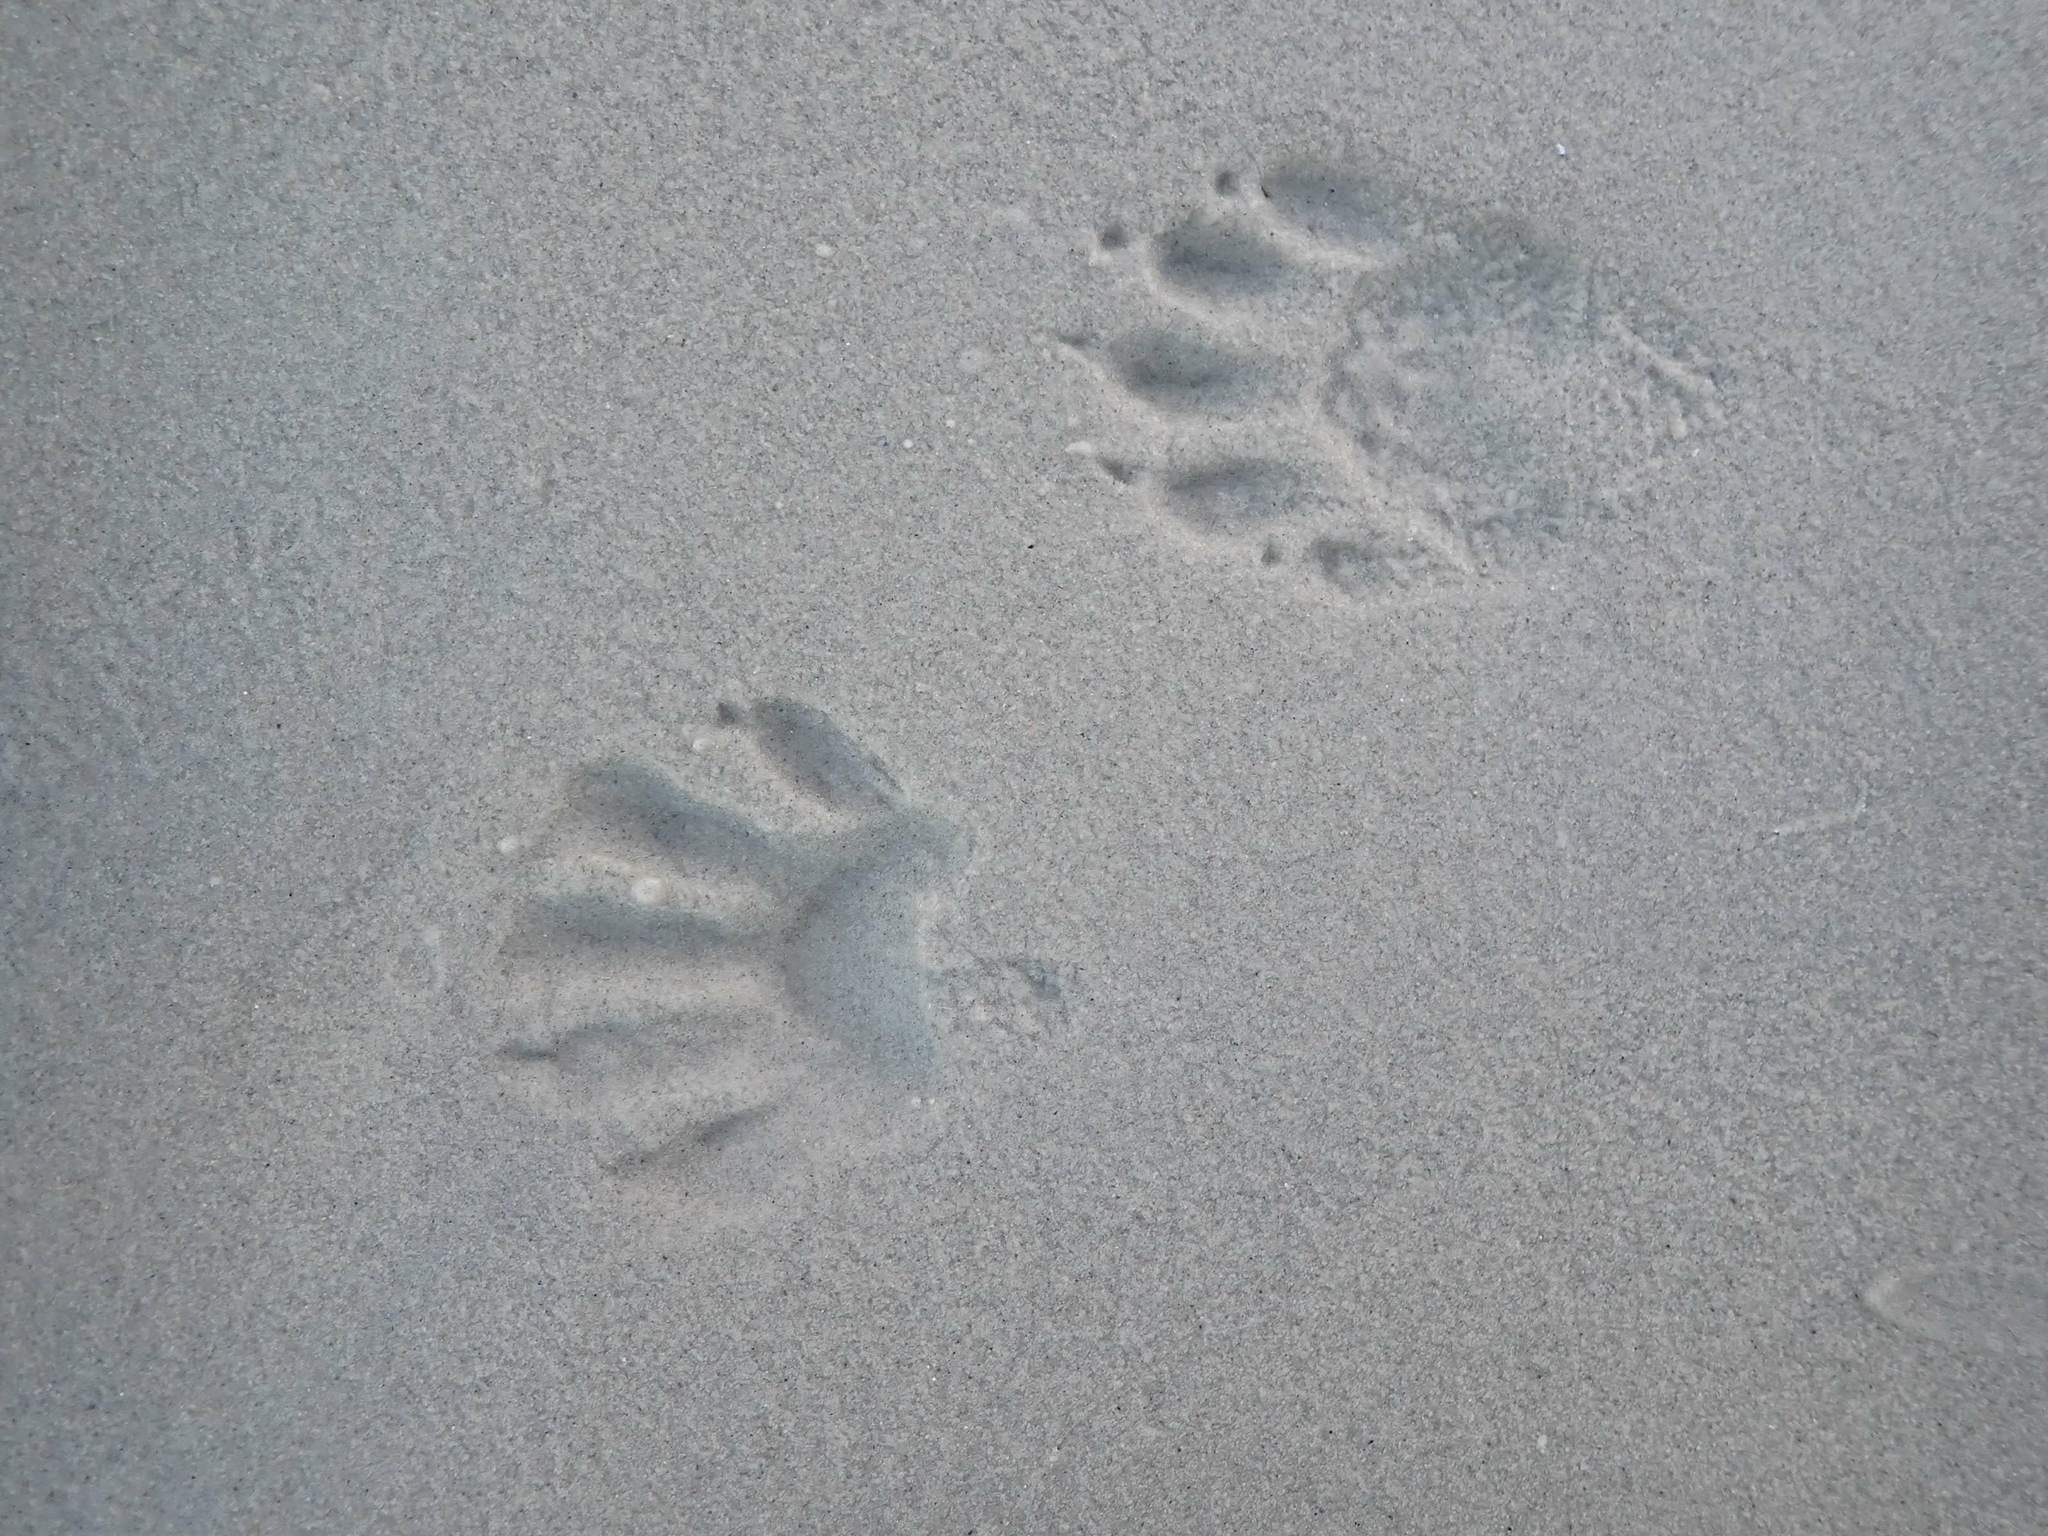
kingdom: Animalia
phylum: Chordata
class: Mammalia
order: Carnivora
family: Procyonidae
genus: Procyon
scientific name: Procyon lotor
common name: Raccoon
